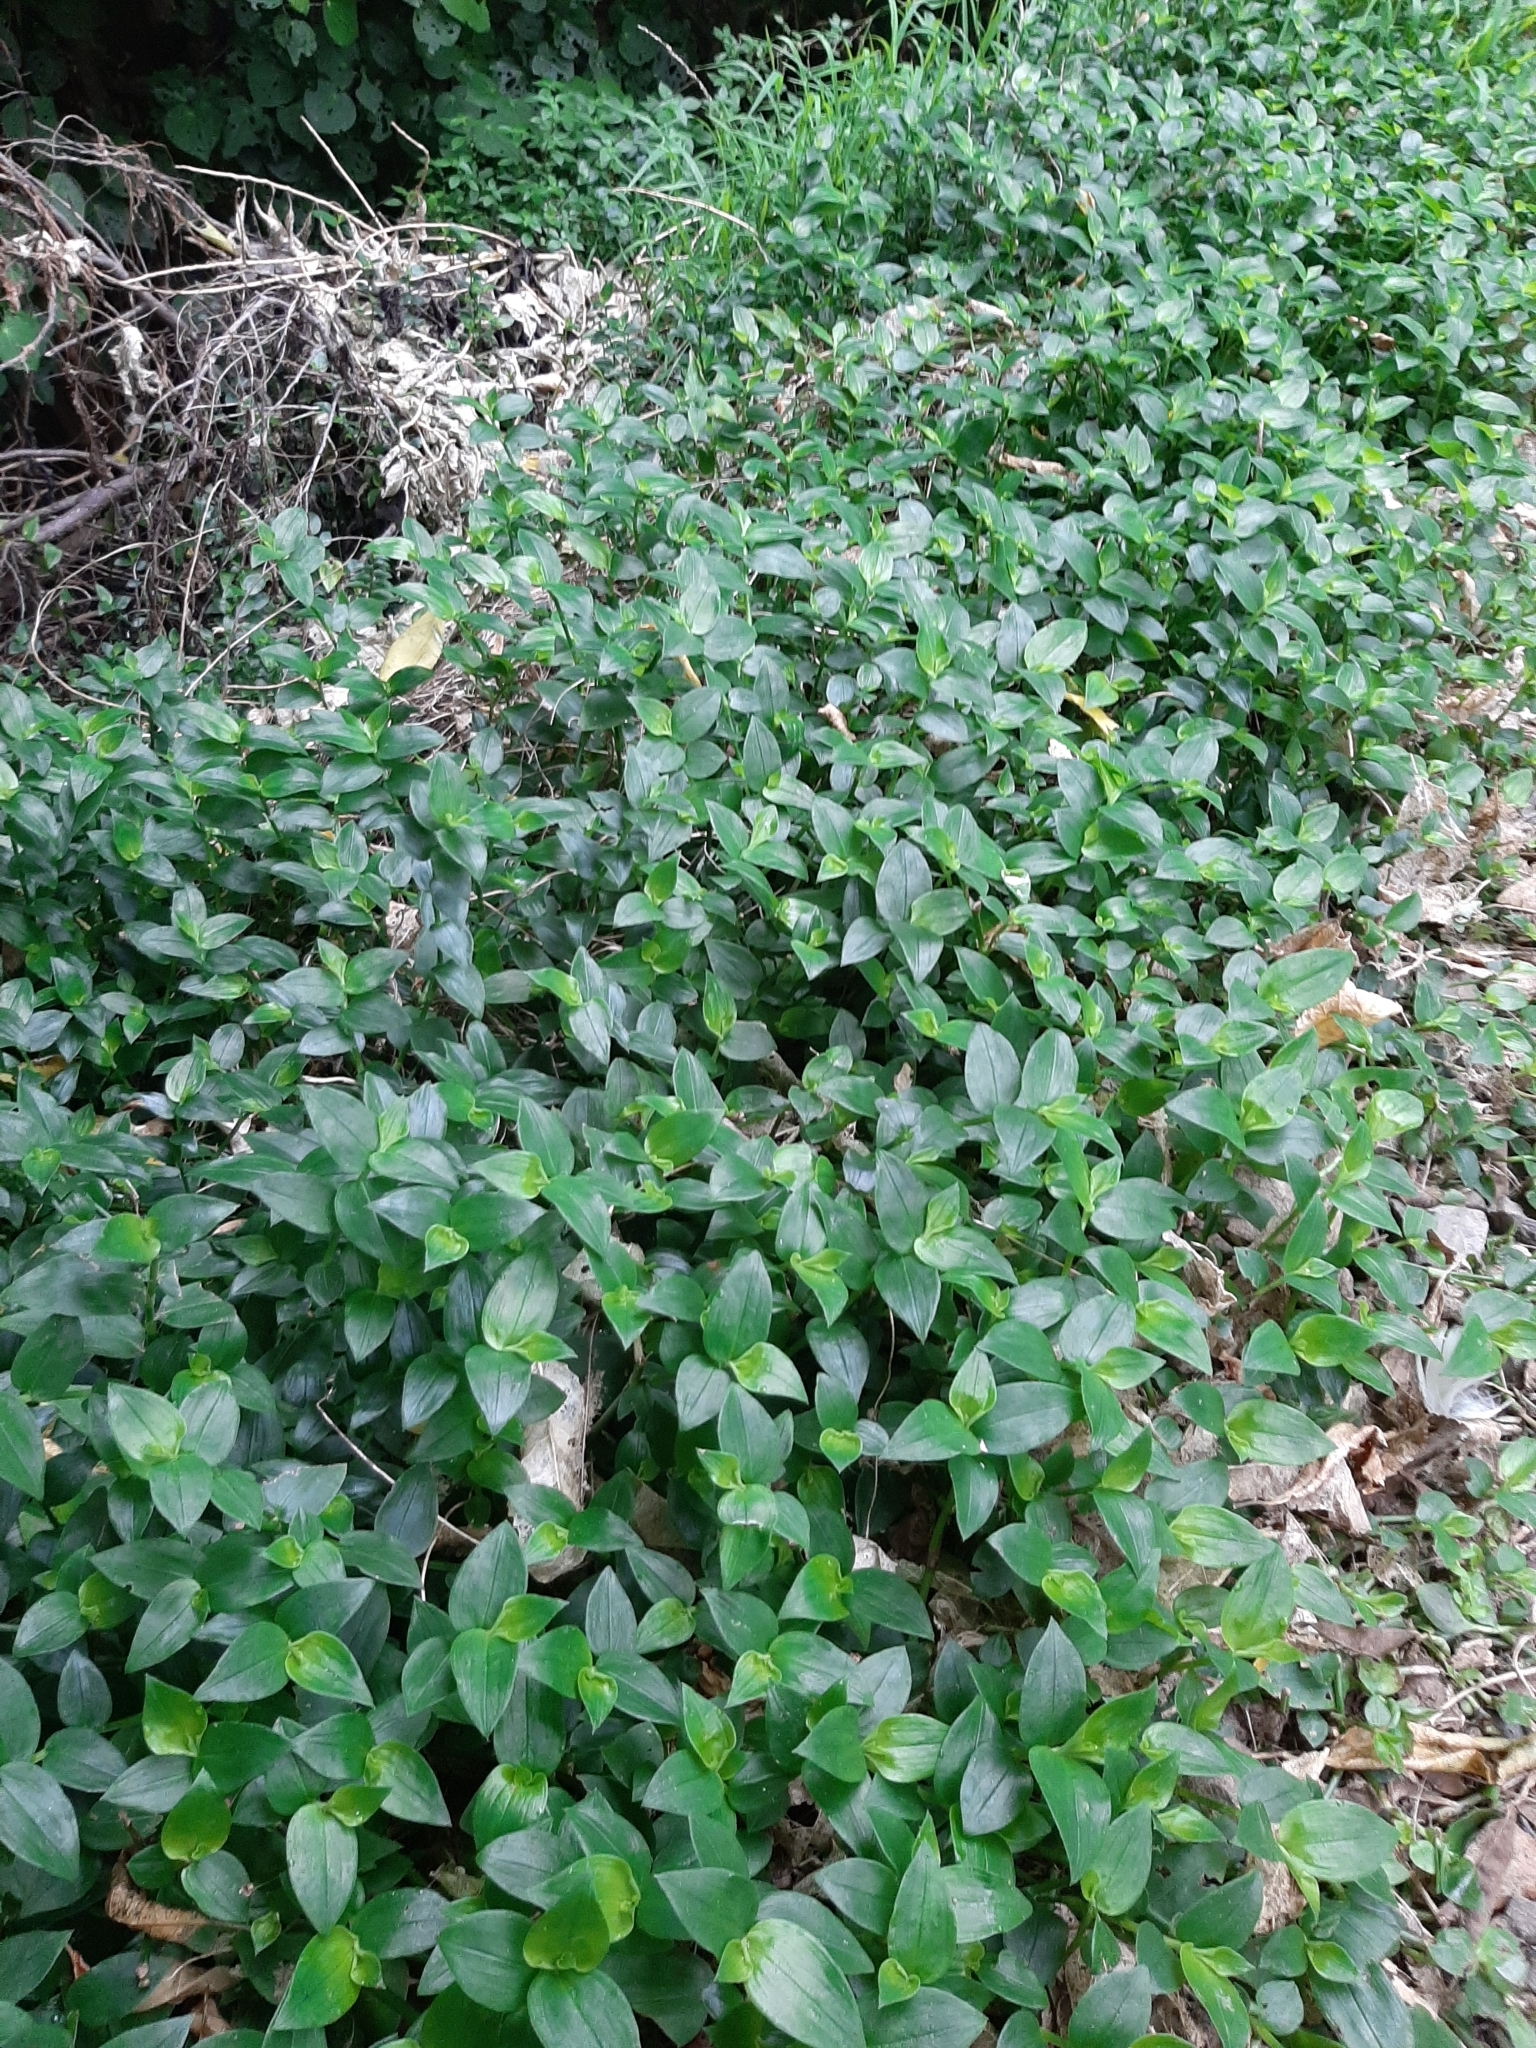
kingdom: Plantae
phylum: Tracheophyta
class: Liliopsida
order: Commelinales
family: Commelinaceae
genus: Tradescantia
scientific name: Tradescantia fluminensis
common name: Wandering-jew
